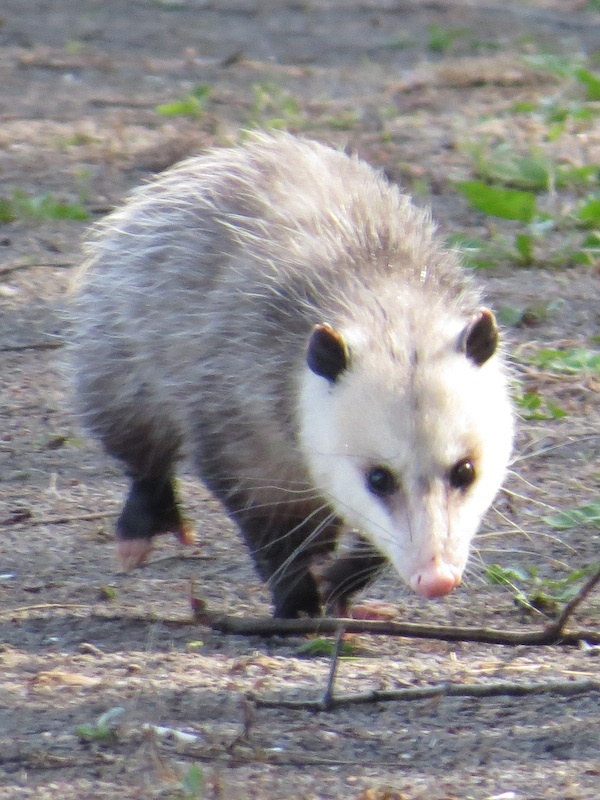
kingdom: Animalia
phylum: Chordata
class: Mammalia
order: Didelphimorphia
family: Didelphidae
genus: Didelphis
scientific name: Didelphis virginiana
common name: Virginia opossum
